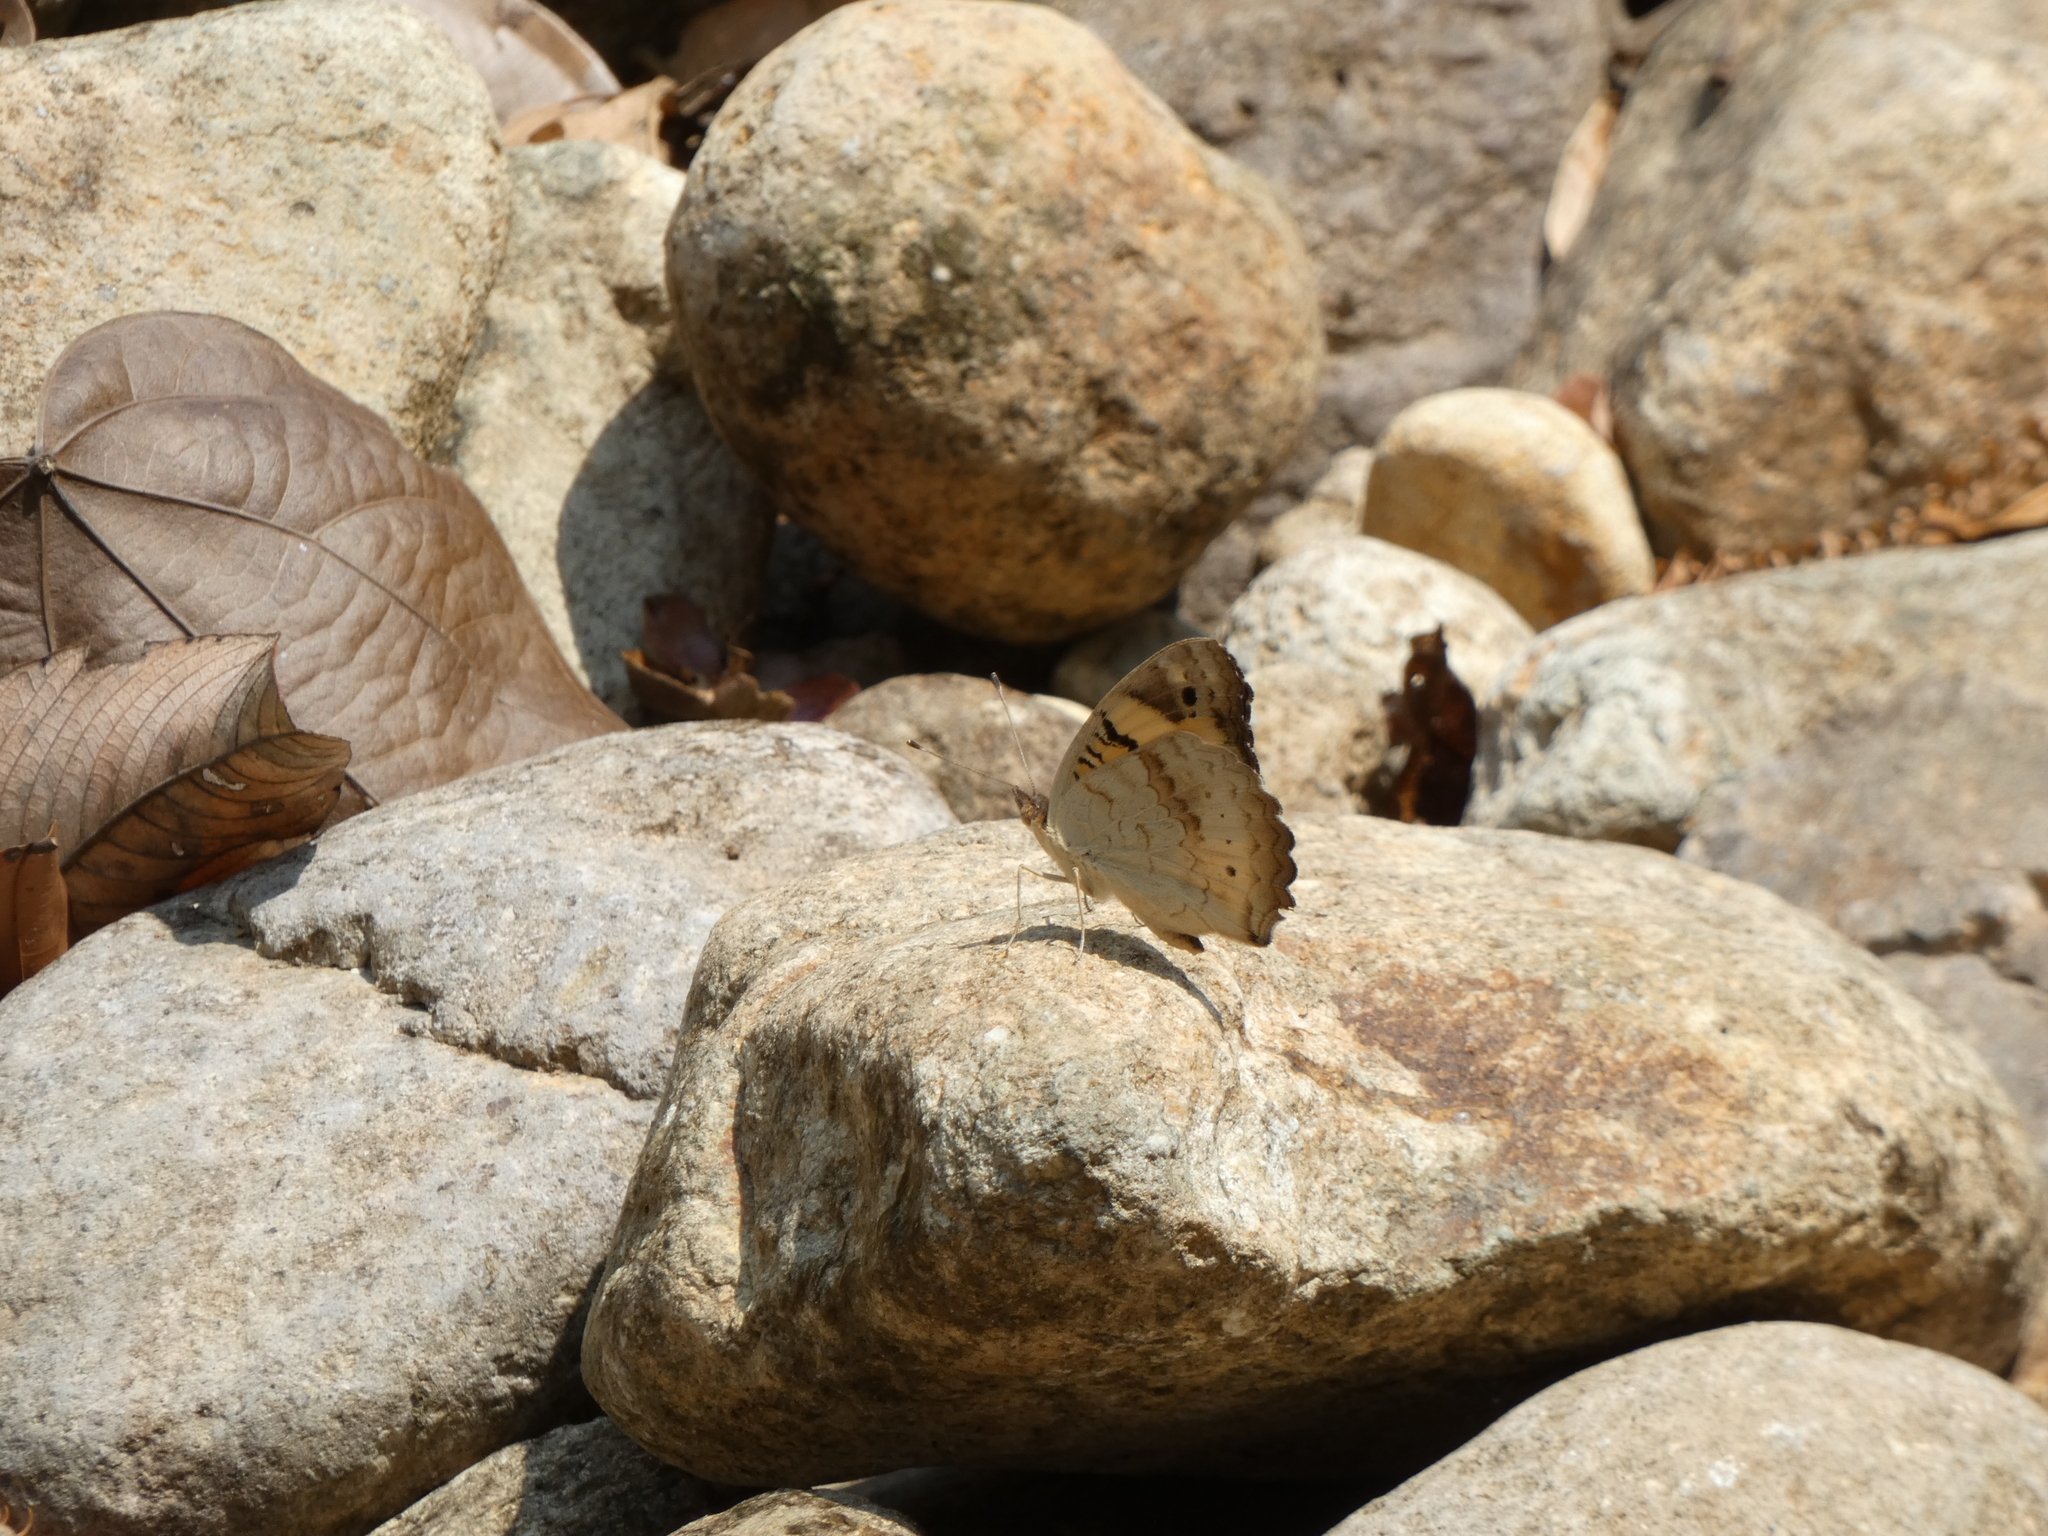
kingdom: Animalia
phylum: Arthropoda
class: Insecta
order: Lepidoptera
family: Nymphalidae
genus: Junonia
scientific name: Junonia hierta
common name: Yellow pansy
